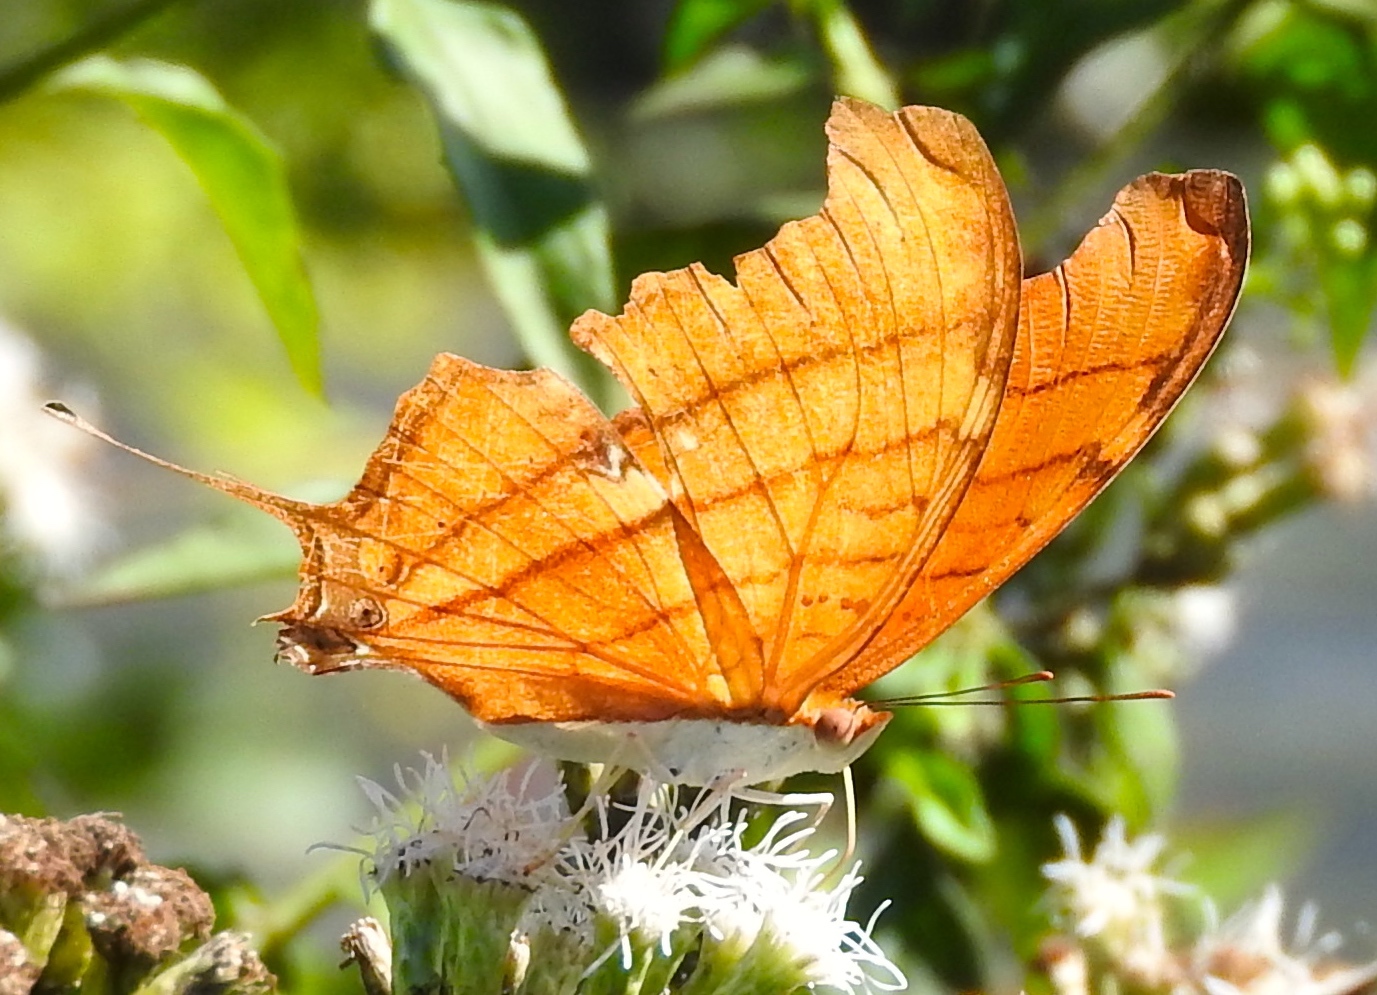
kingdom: Animalia
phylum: Arthropoda
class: Insecta
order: Lepidoptera
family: Nymphalidae
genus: Marpesia
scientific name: Marpesia petreus
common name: Red dagger wing
